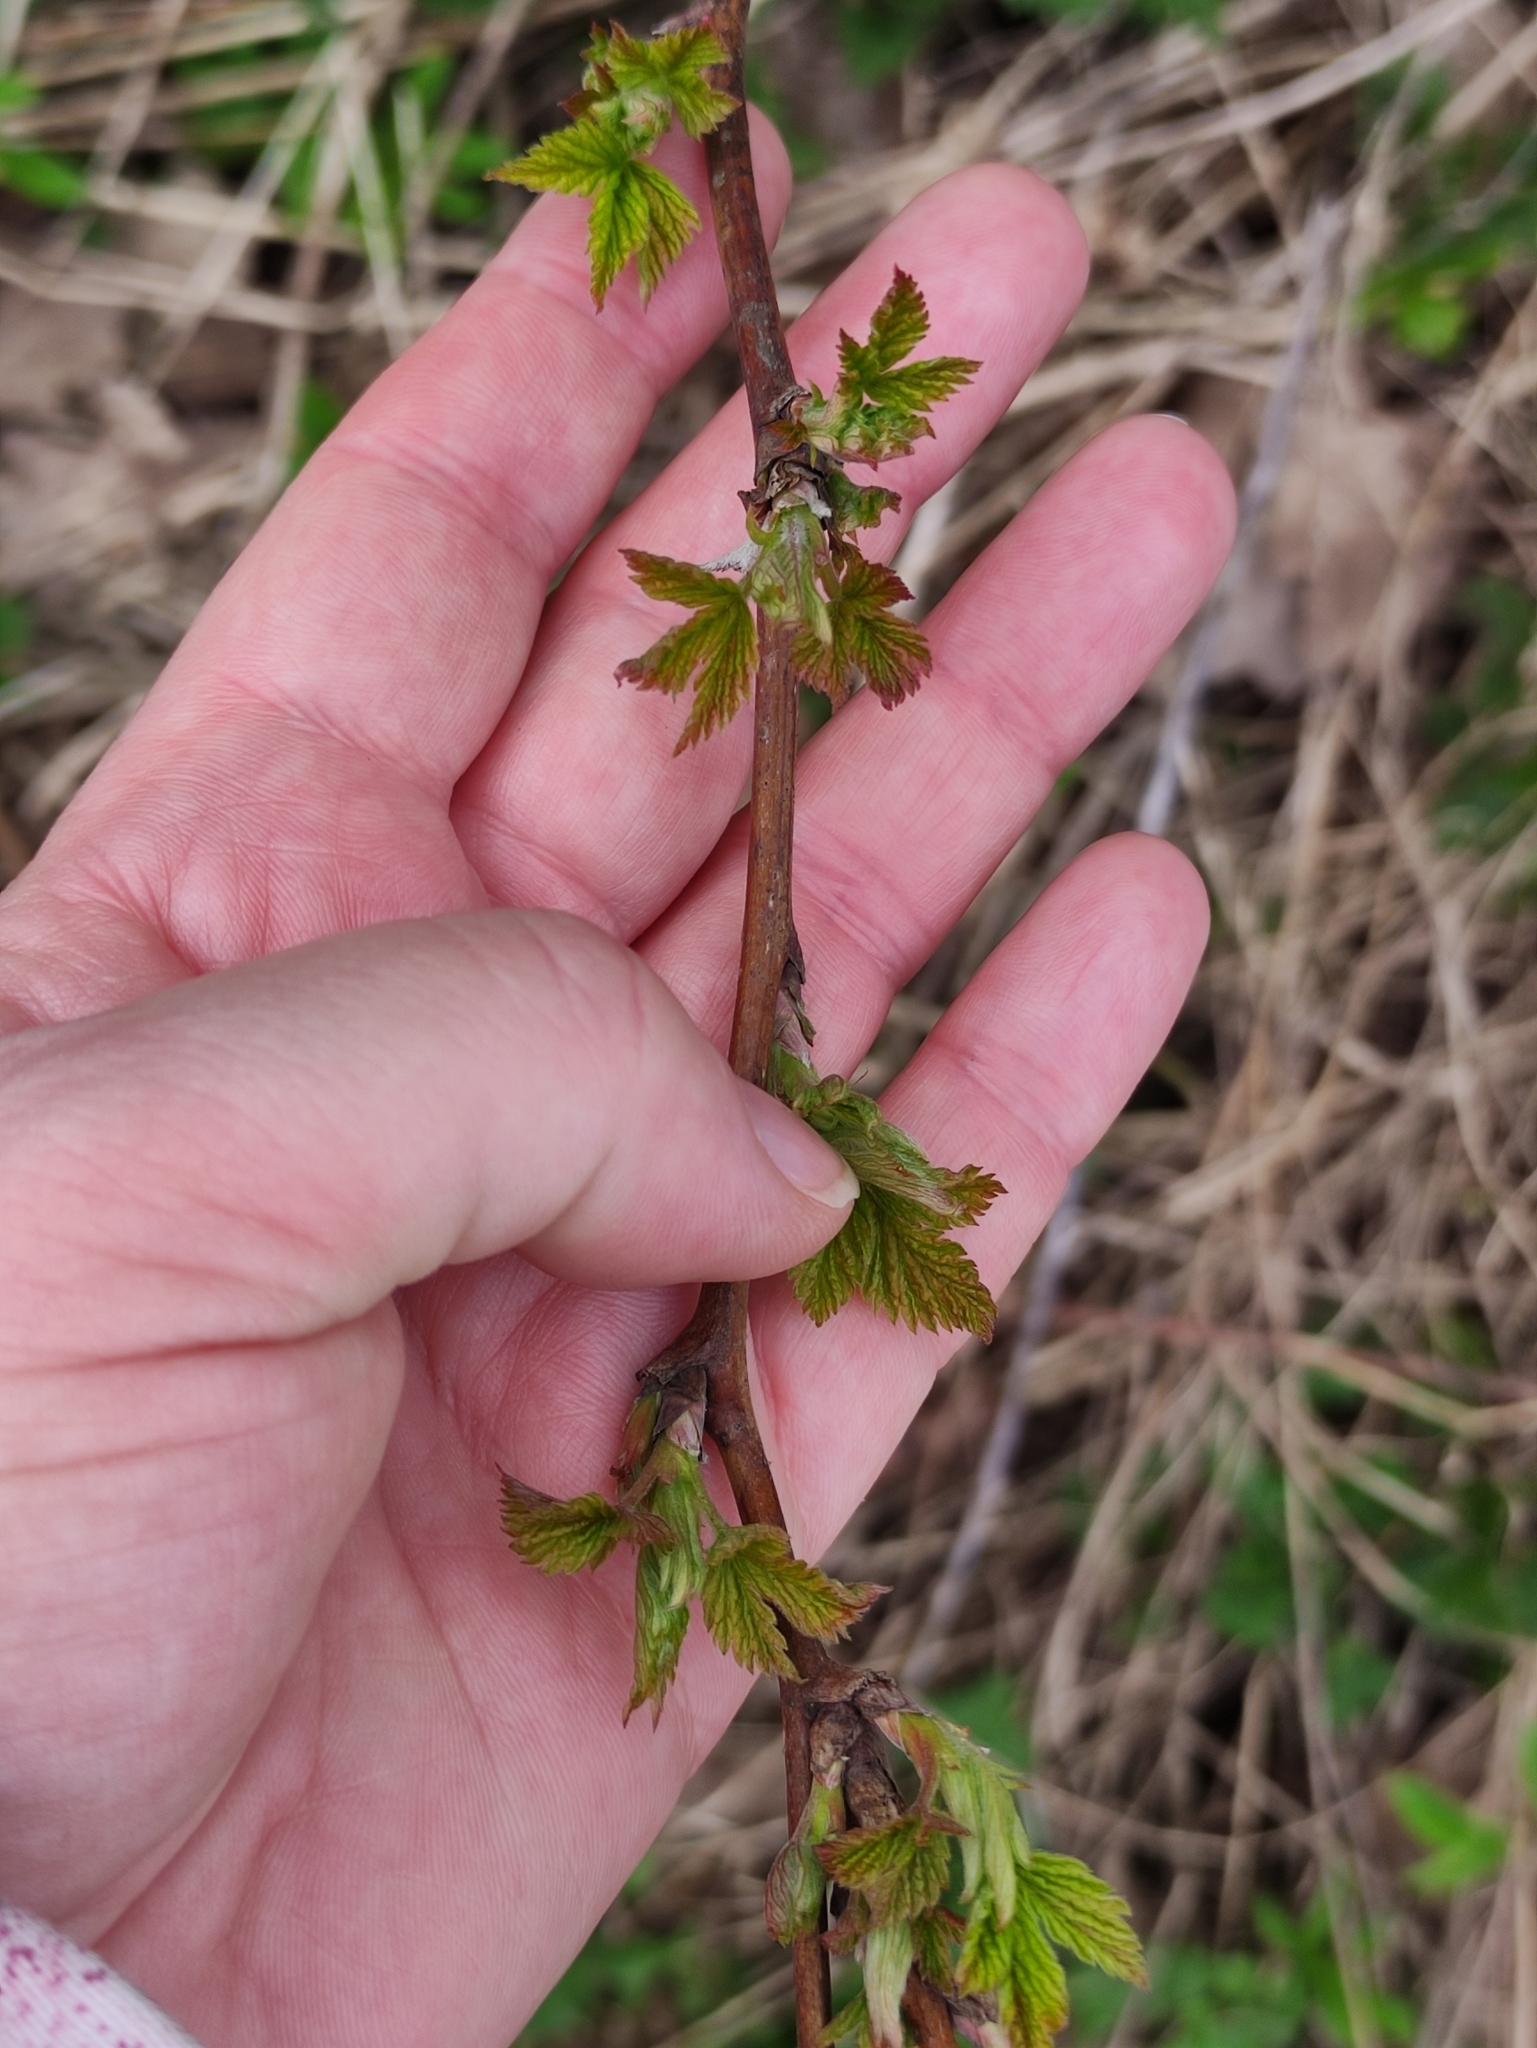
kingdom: Plantae
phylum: Tracheophyta
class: Magnoliopsida
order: Rosales
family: Rosaceae
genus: Rubus
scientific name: Rubus idaeus
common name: Raspberry
